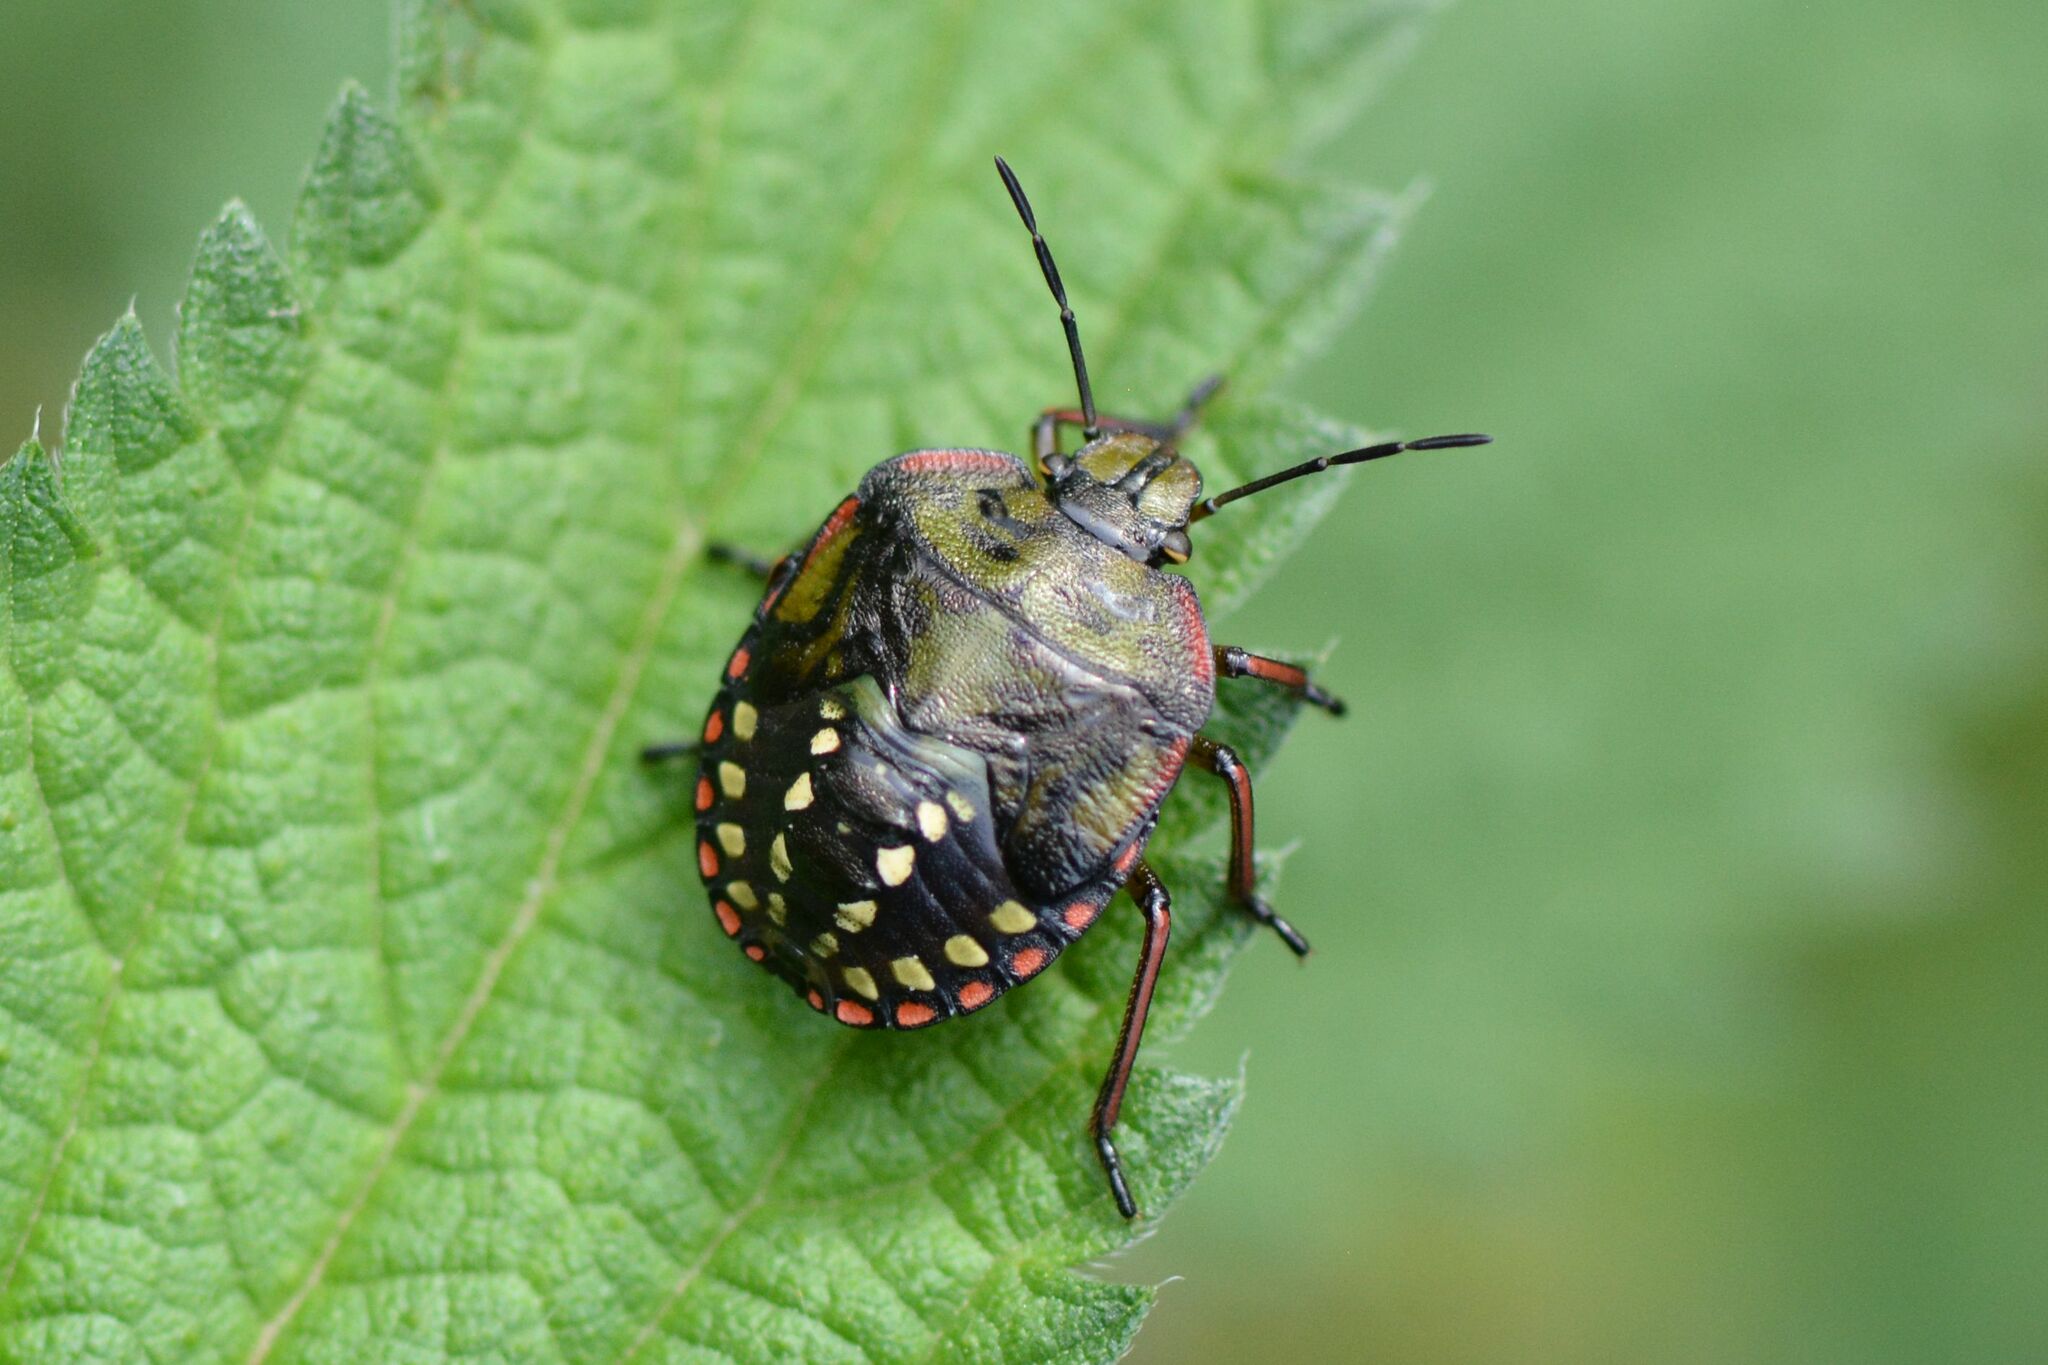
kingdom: Animalia
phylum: Arthropoda
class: Insecta
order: Hemiptera
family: Pentatomidae
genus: Nezara
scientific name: Nezara viridula
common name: Southern green stink bug
